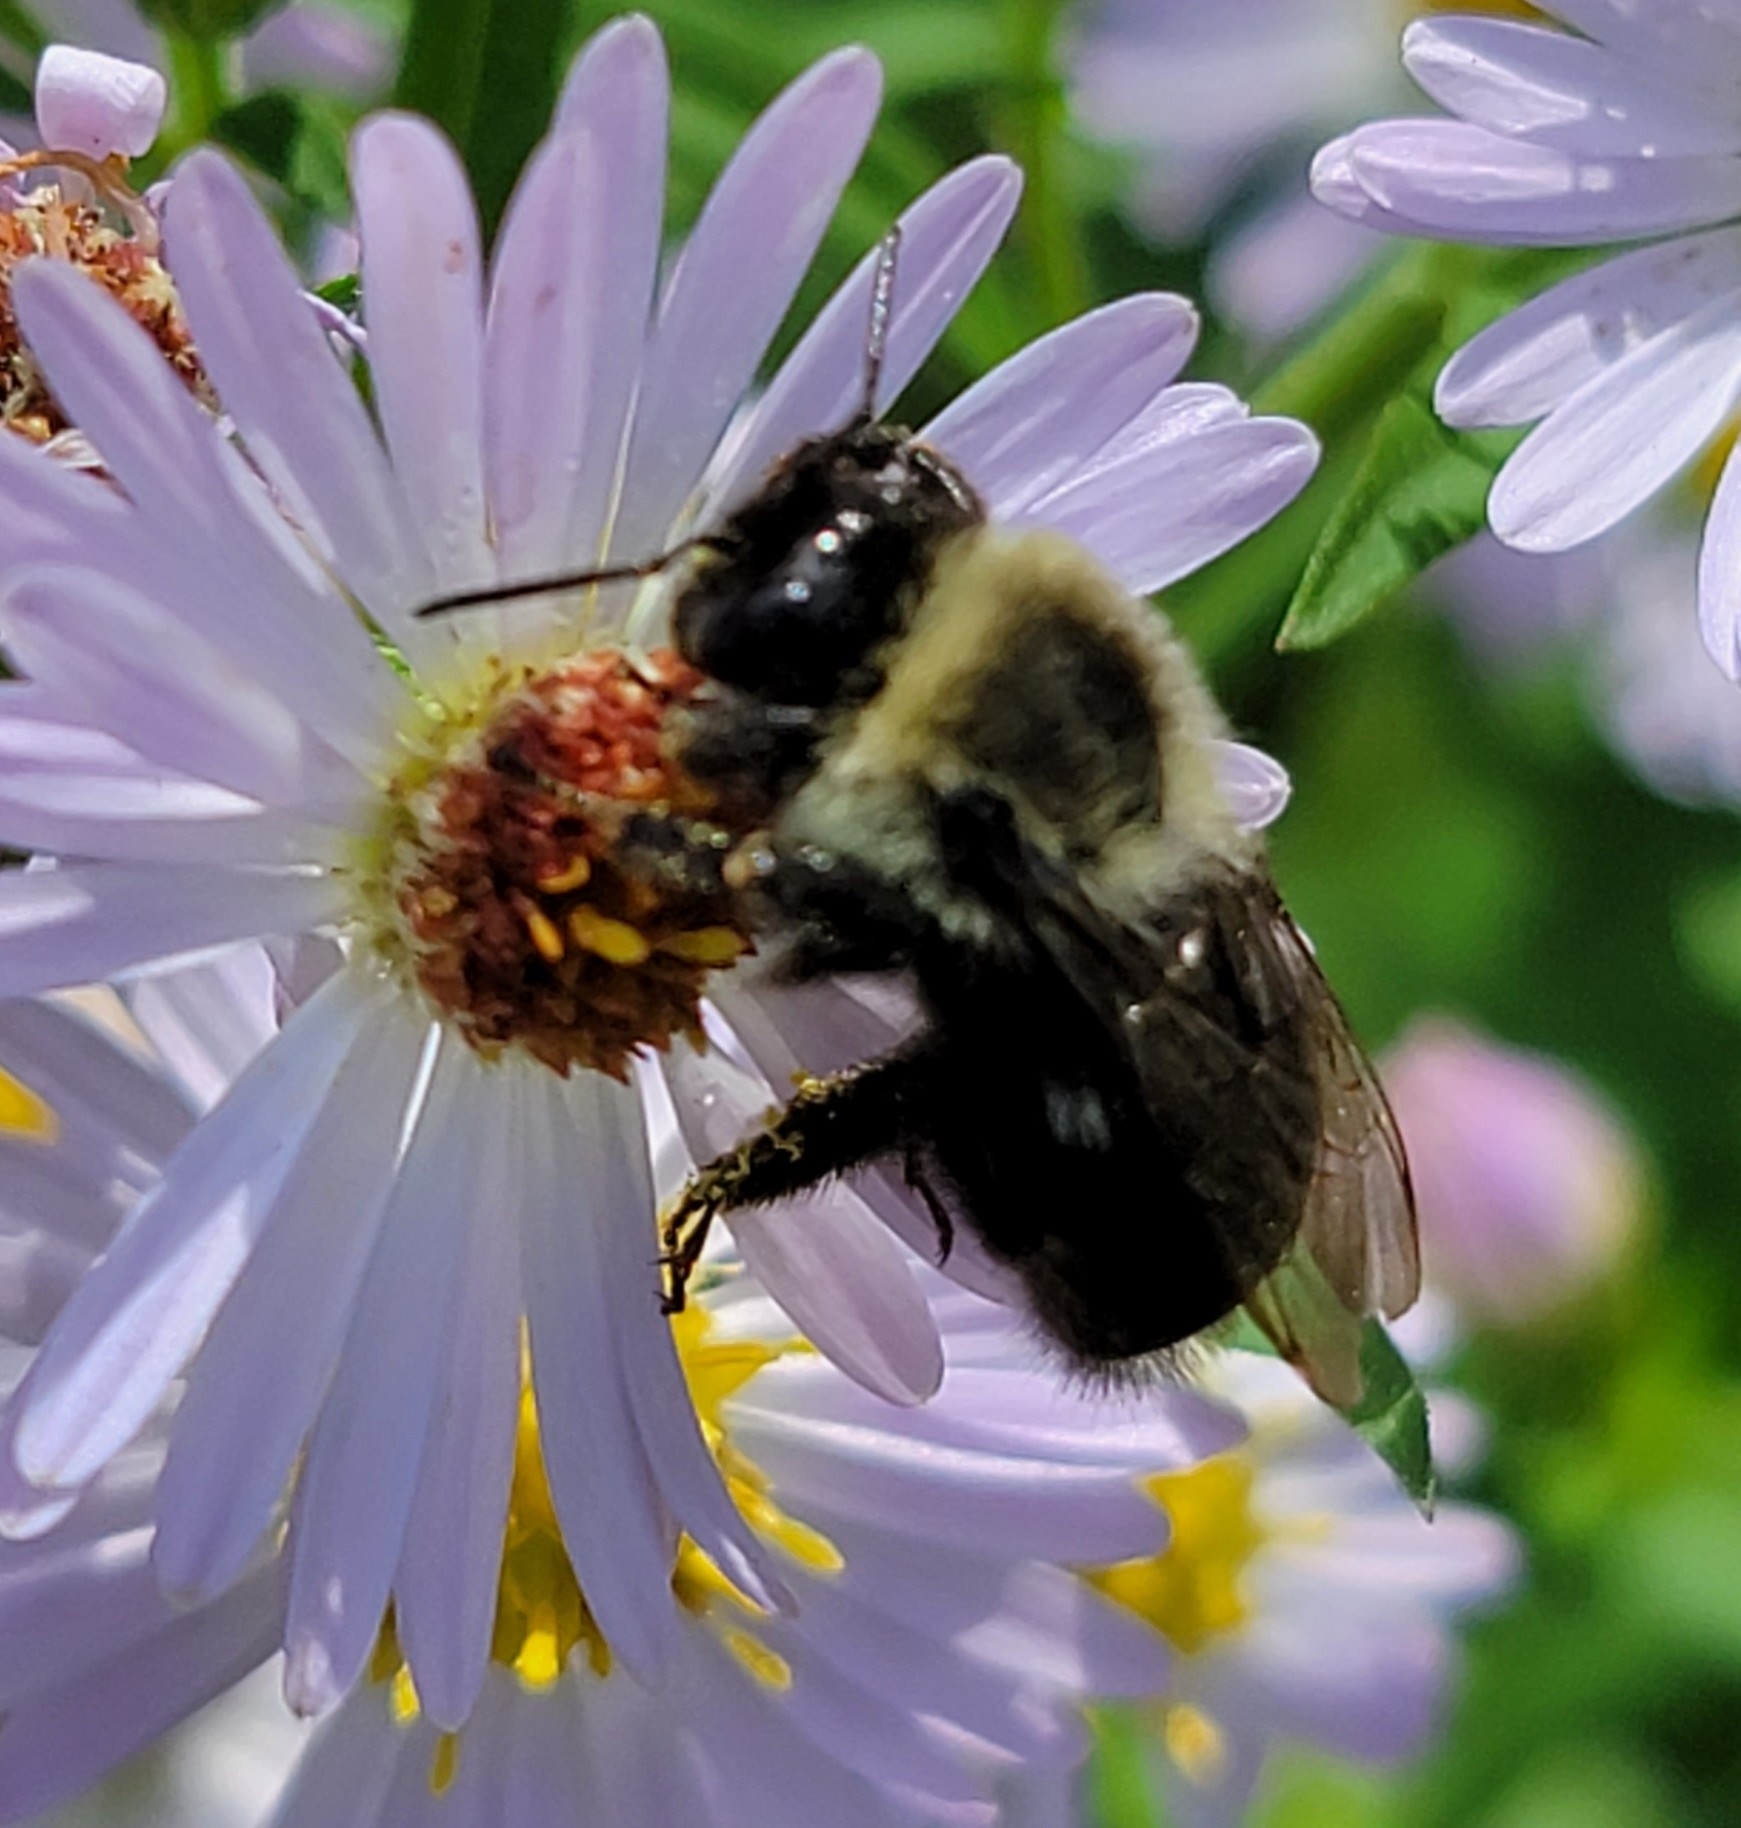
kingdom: Animalia
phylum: Arthropoda
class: Insecta
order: Hymenoptera
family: Apidae
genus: Bombus
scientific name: Bombus impatiens
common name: Common eastern bumble bee
